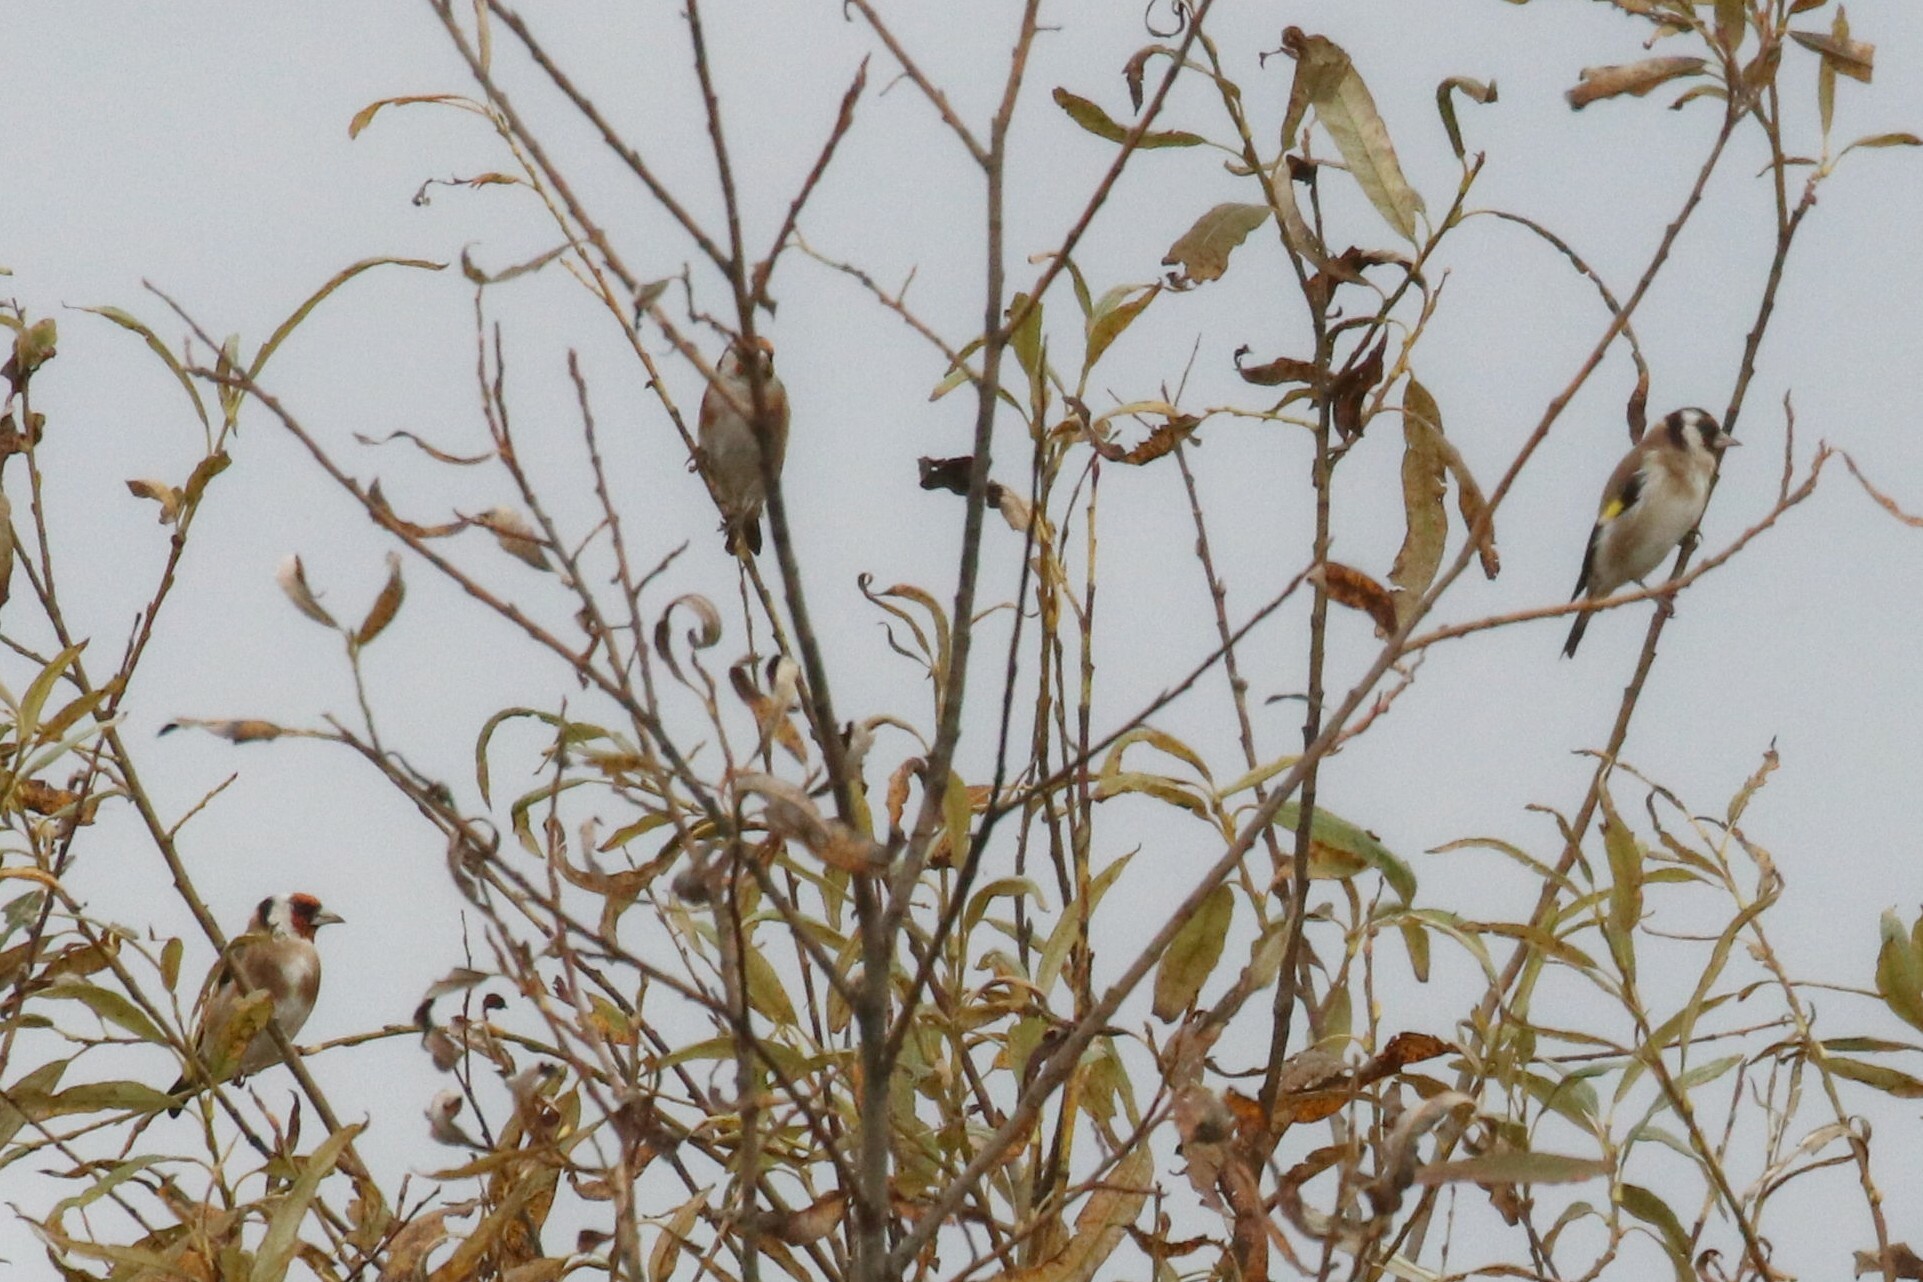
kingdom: Animalia
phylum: Chordata
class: Aves
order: Passeriformes
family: Fringillidae
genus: Carduelis
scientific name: Carduelis carduelis
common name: European goldfinch
